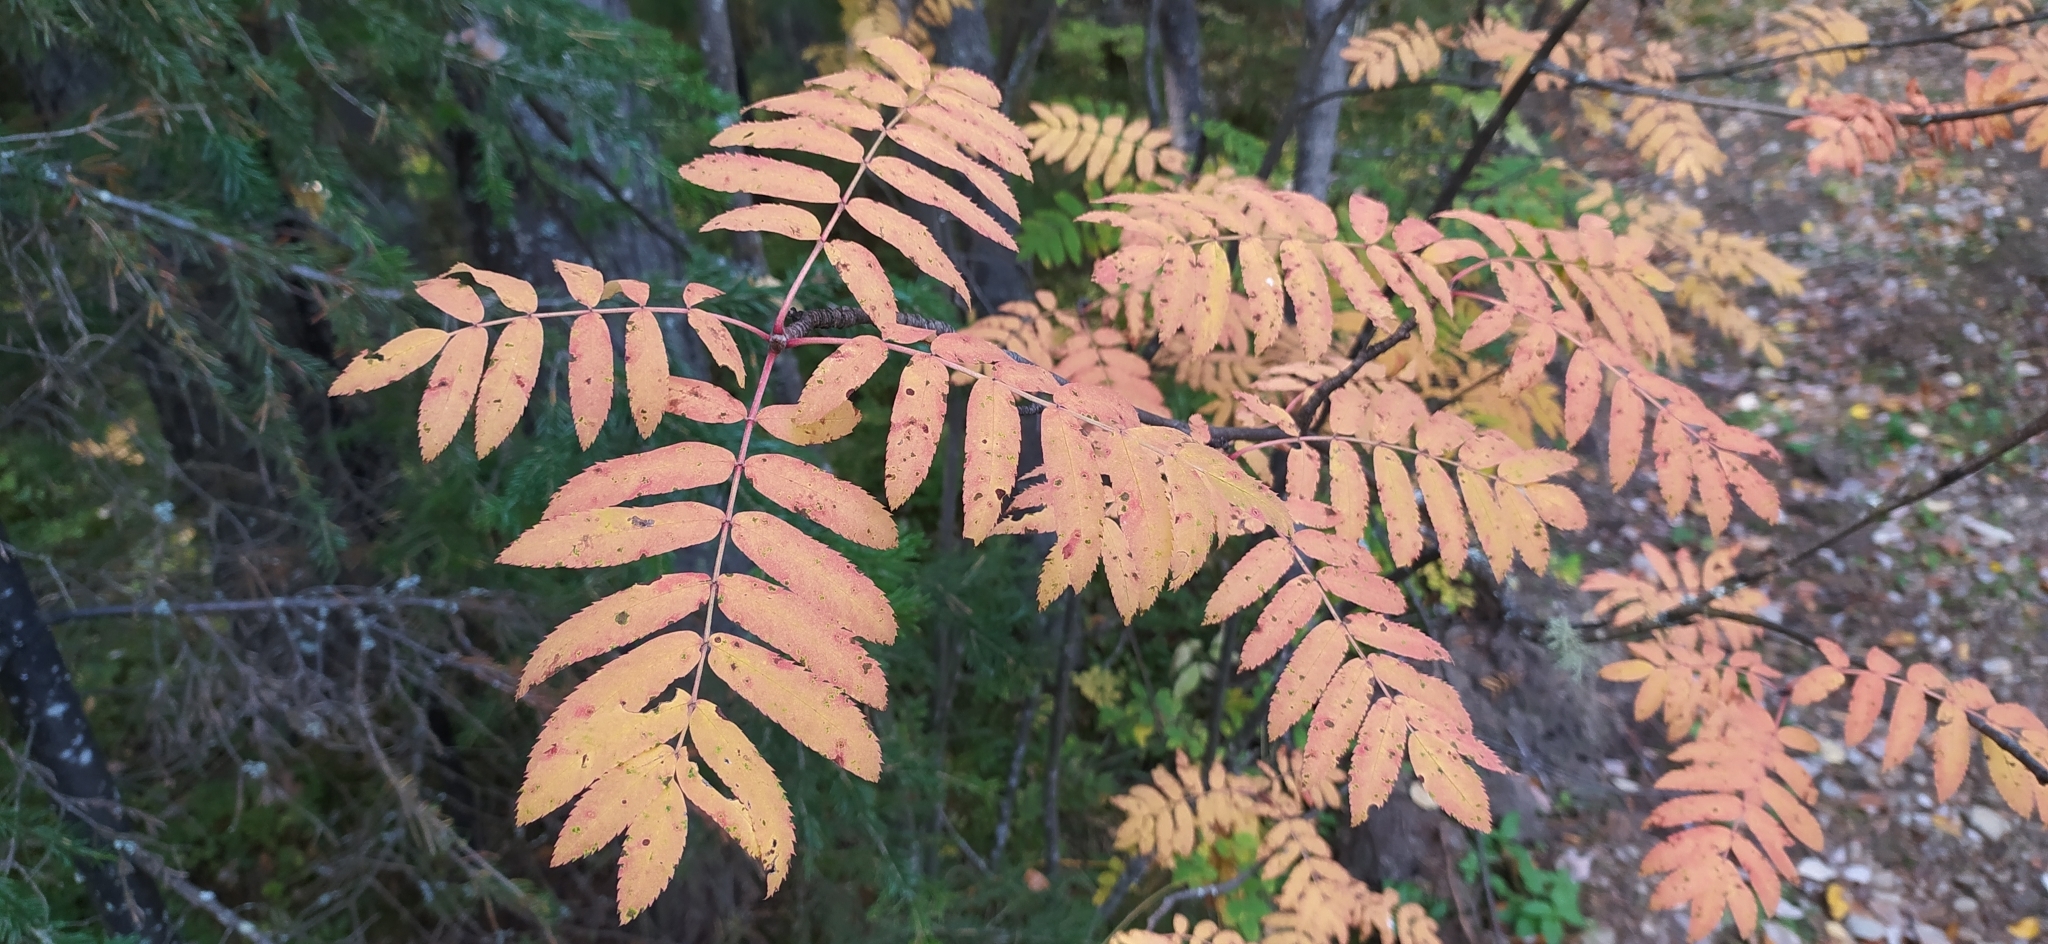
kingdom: Plantae
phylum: Tracheophyta
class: Magnoliopsida
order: Rosales
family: Rosaceae
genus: Sorbus
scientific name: Sorbus aucuparia
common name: Rowan
